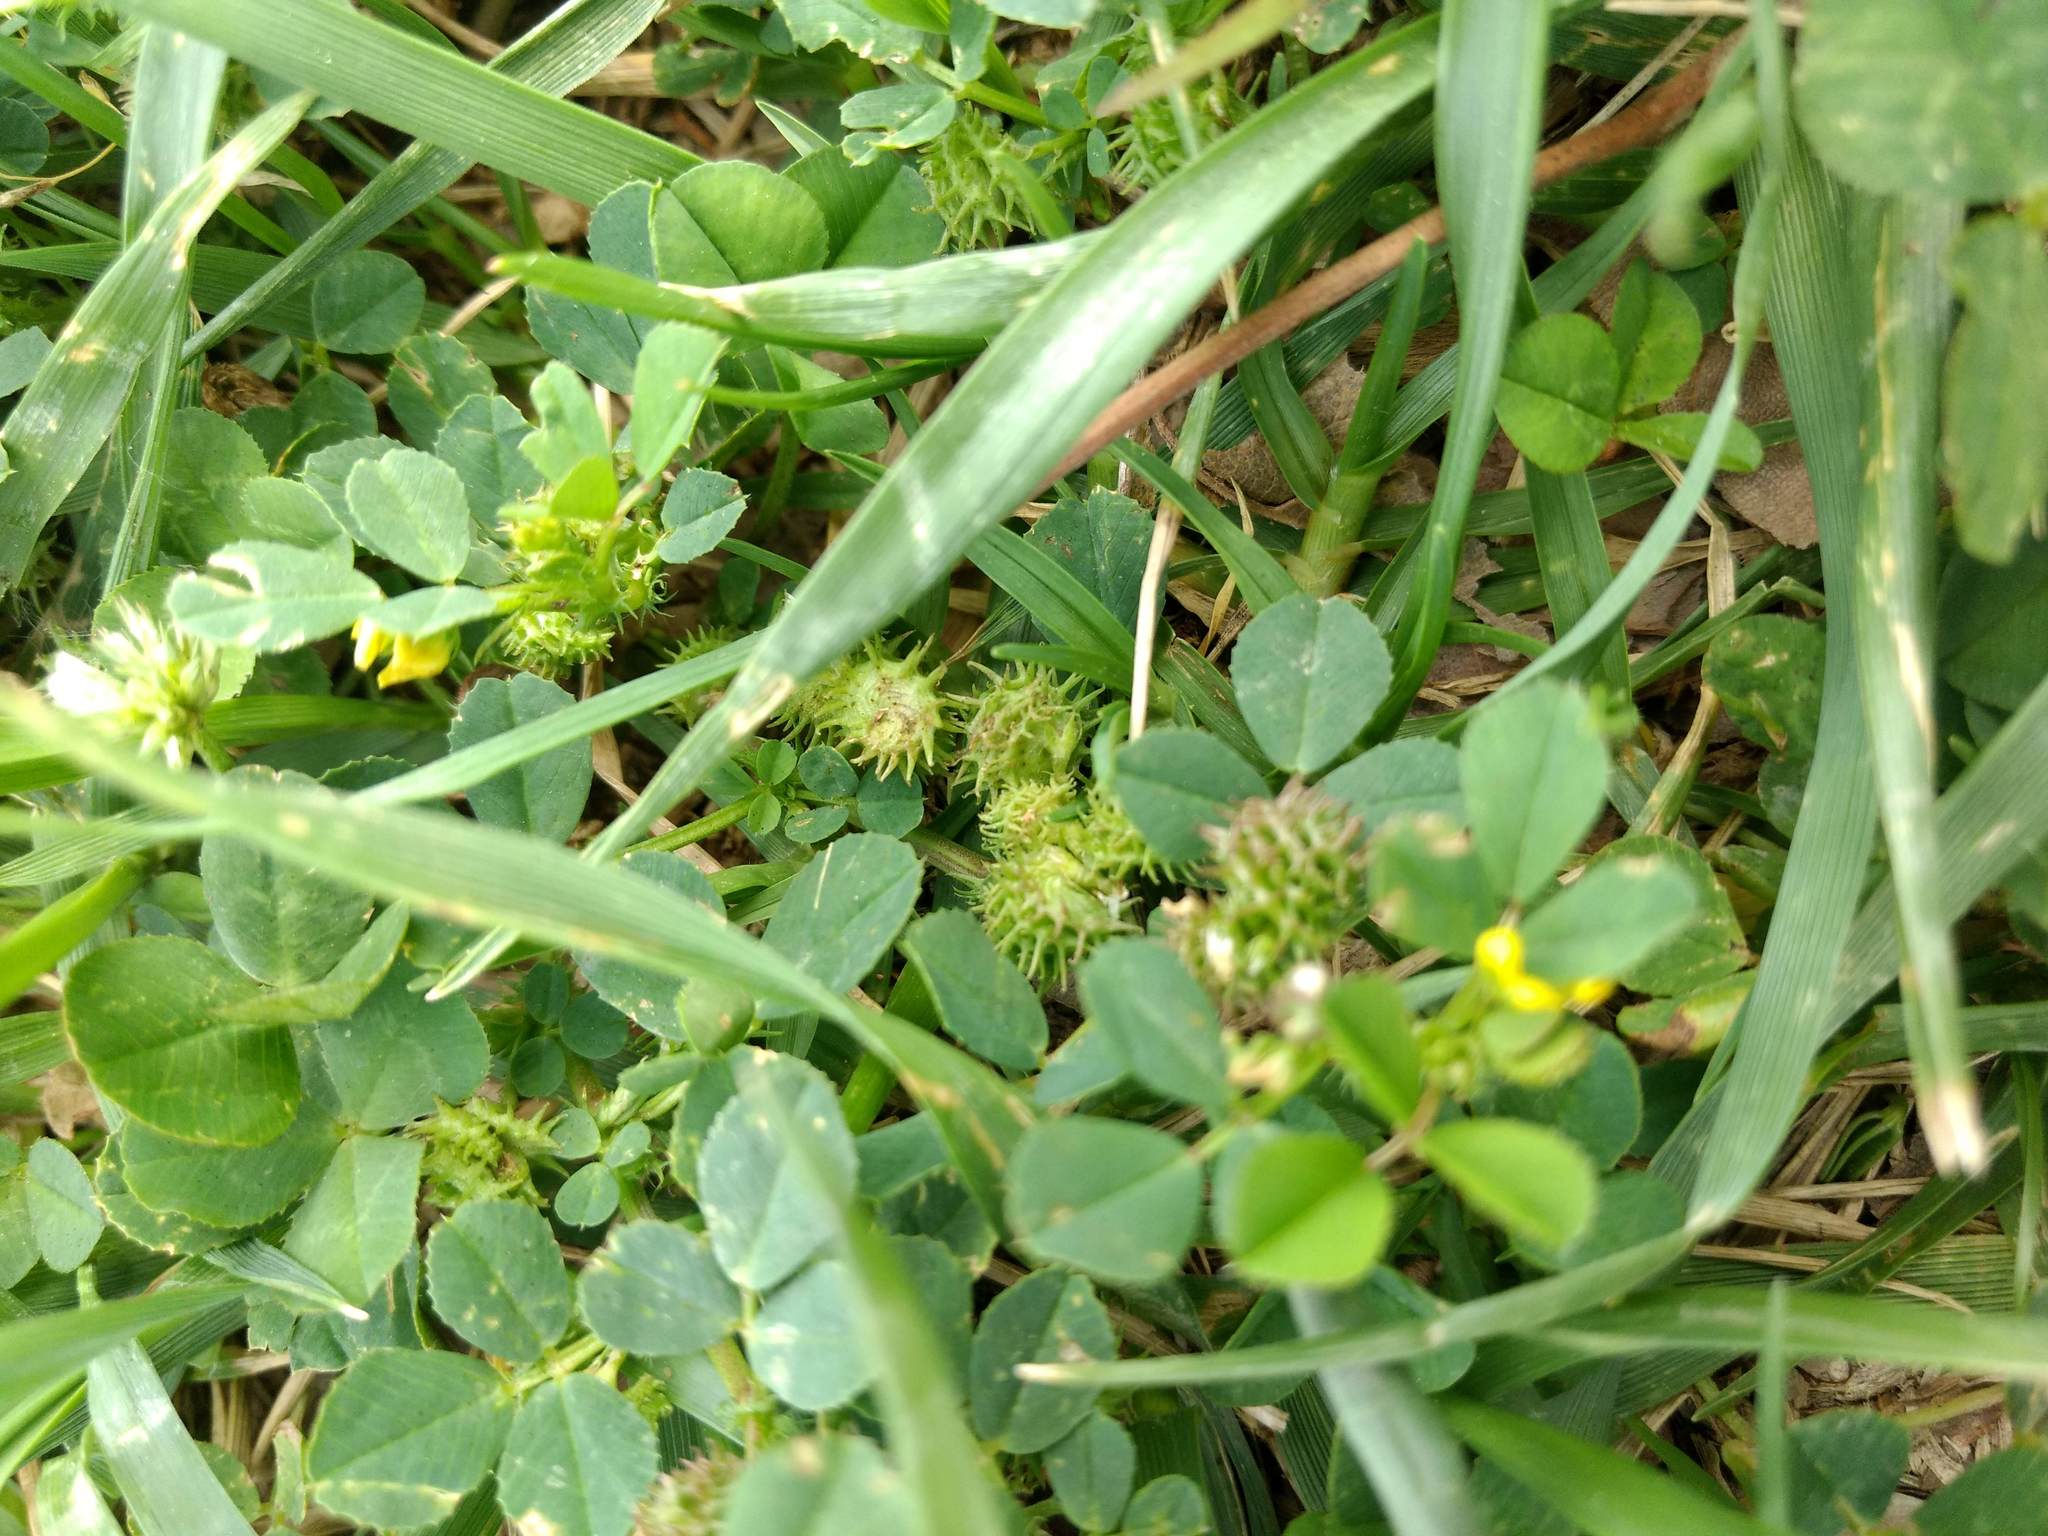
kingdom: Plantae
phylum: Tracheophyta
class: Magnoliopsida
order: Fabales
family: Fabaceae
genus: Medicago
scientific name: Medicago polymorpha
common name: Burclover
